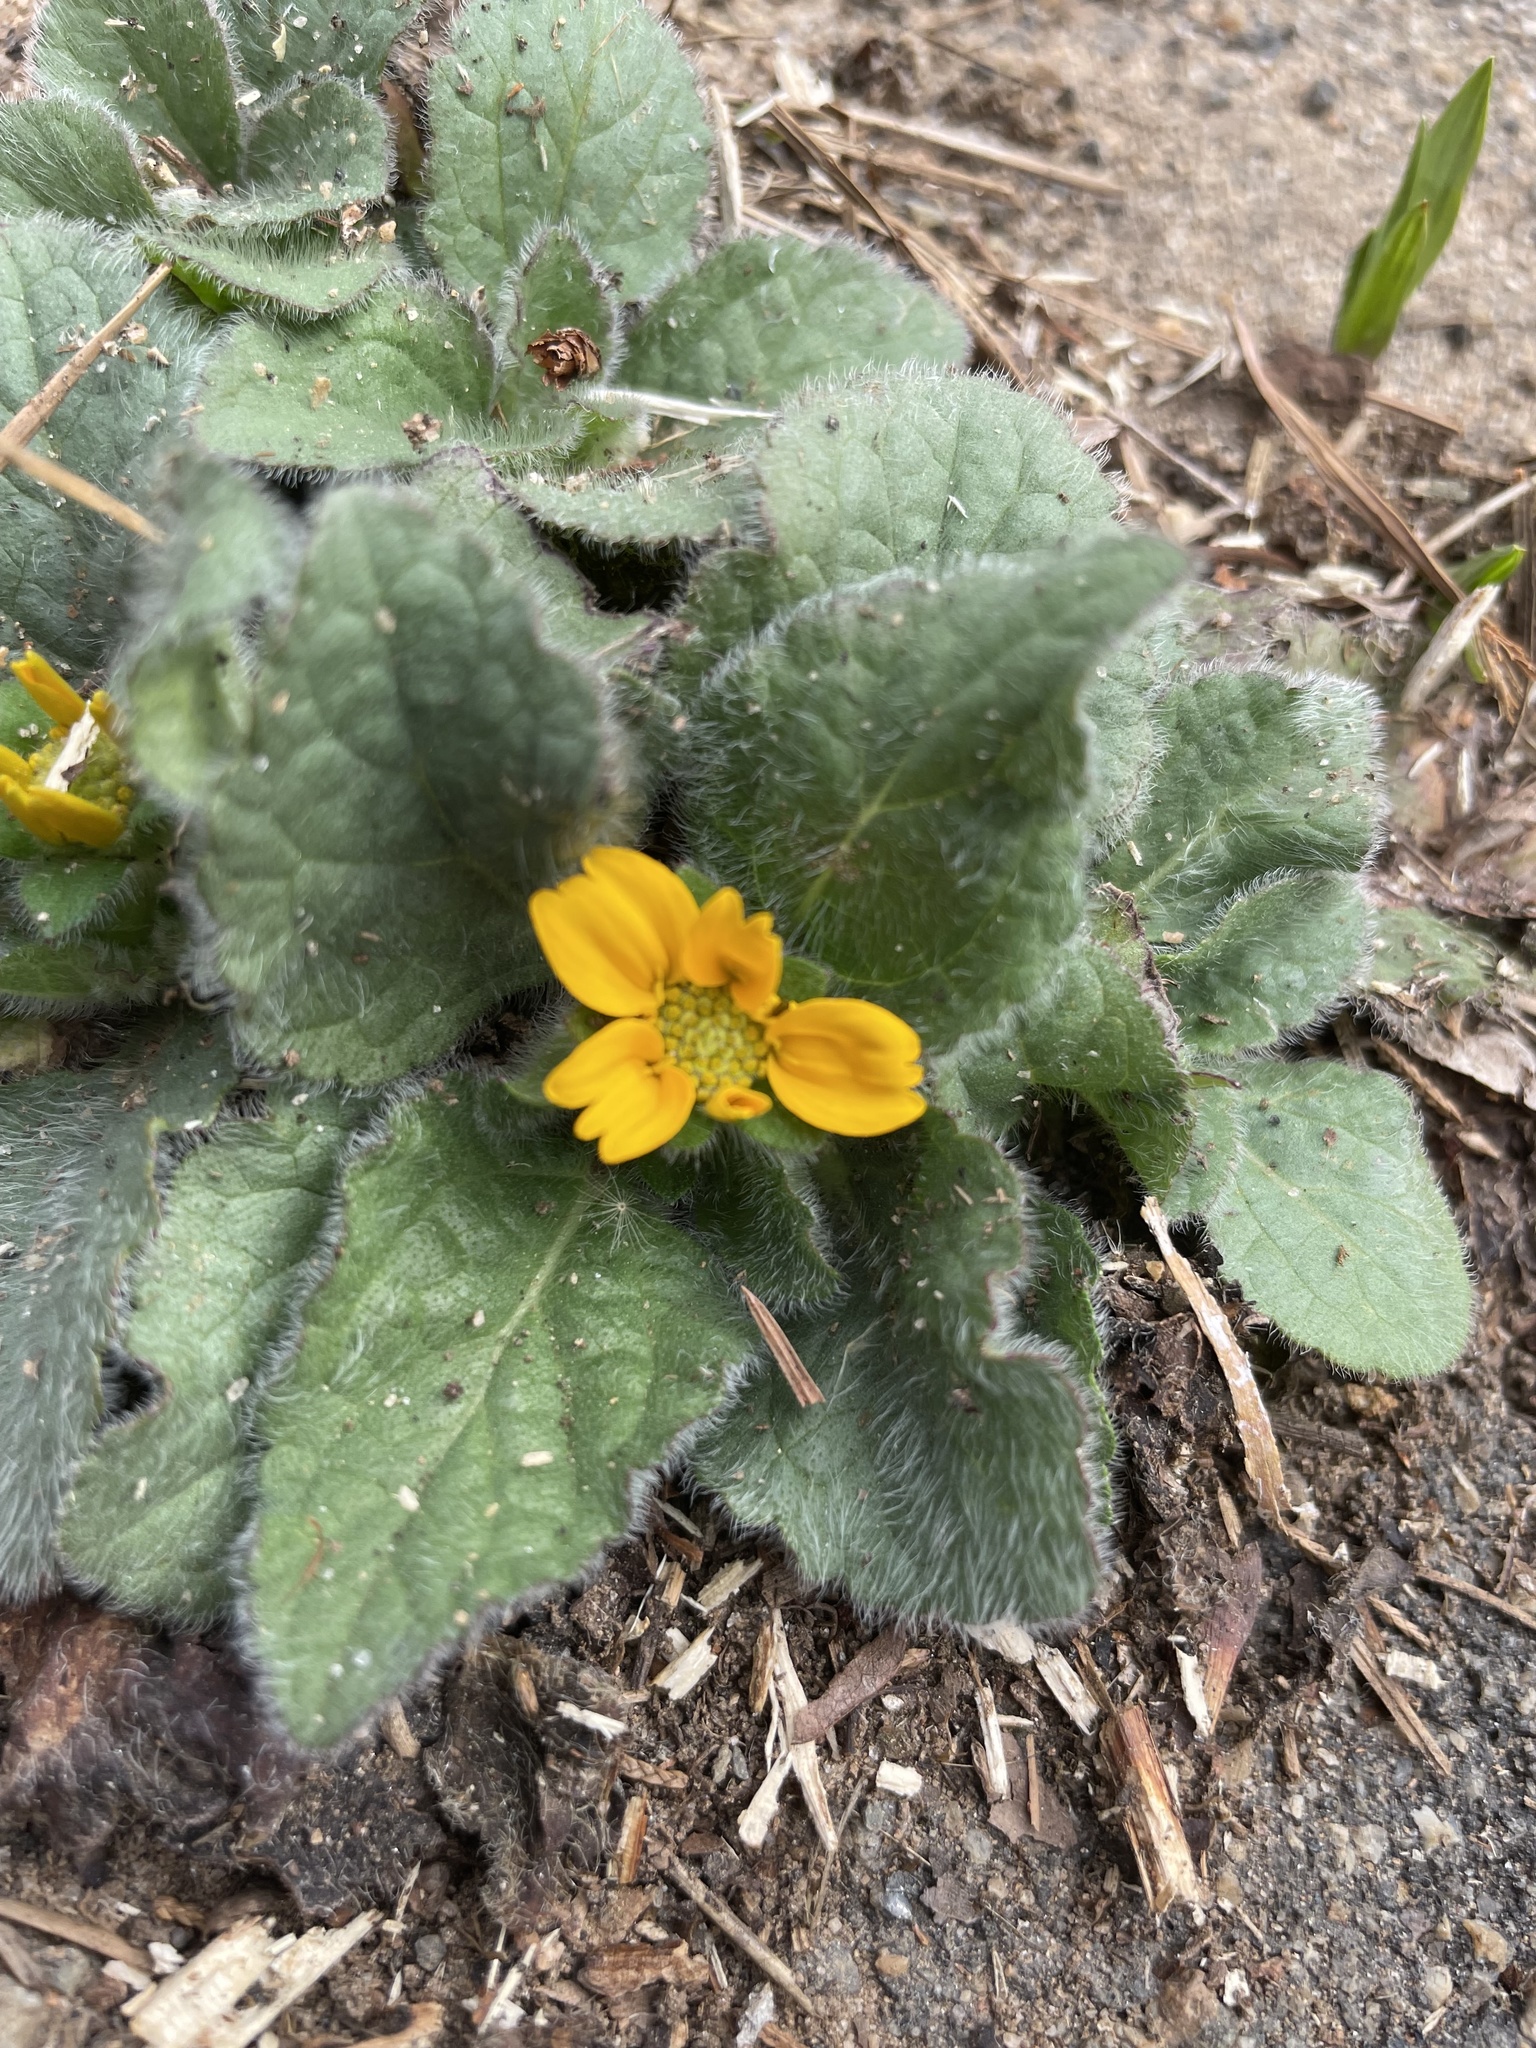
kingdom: Plantae
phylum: Tracheophyta
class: Magnoliopsida
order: Asterales
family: Asteraceae
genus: Chrysogonum
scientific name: Chrysogonum virginianum
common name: Golden-knee
